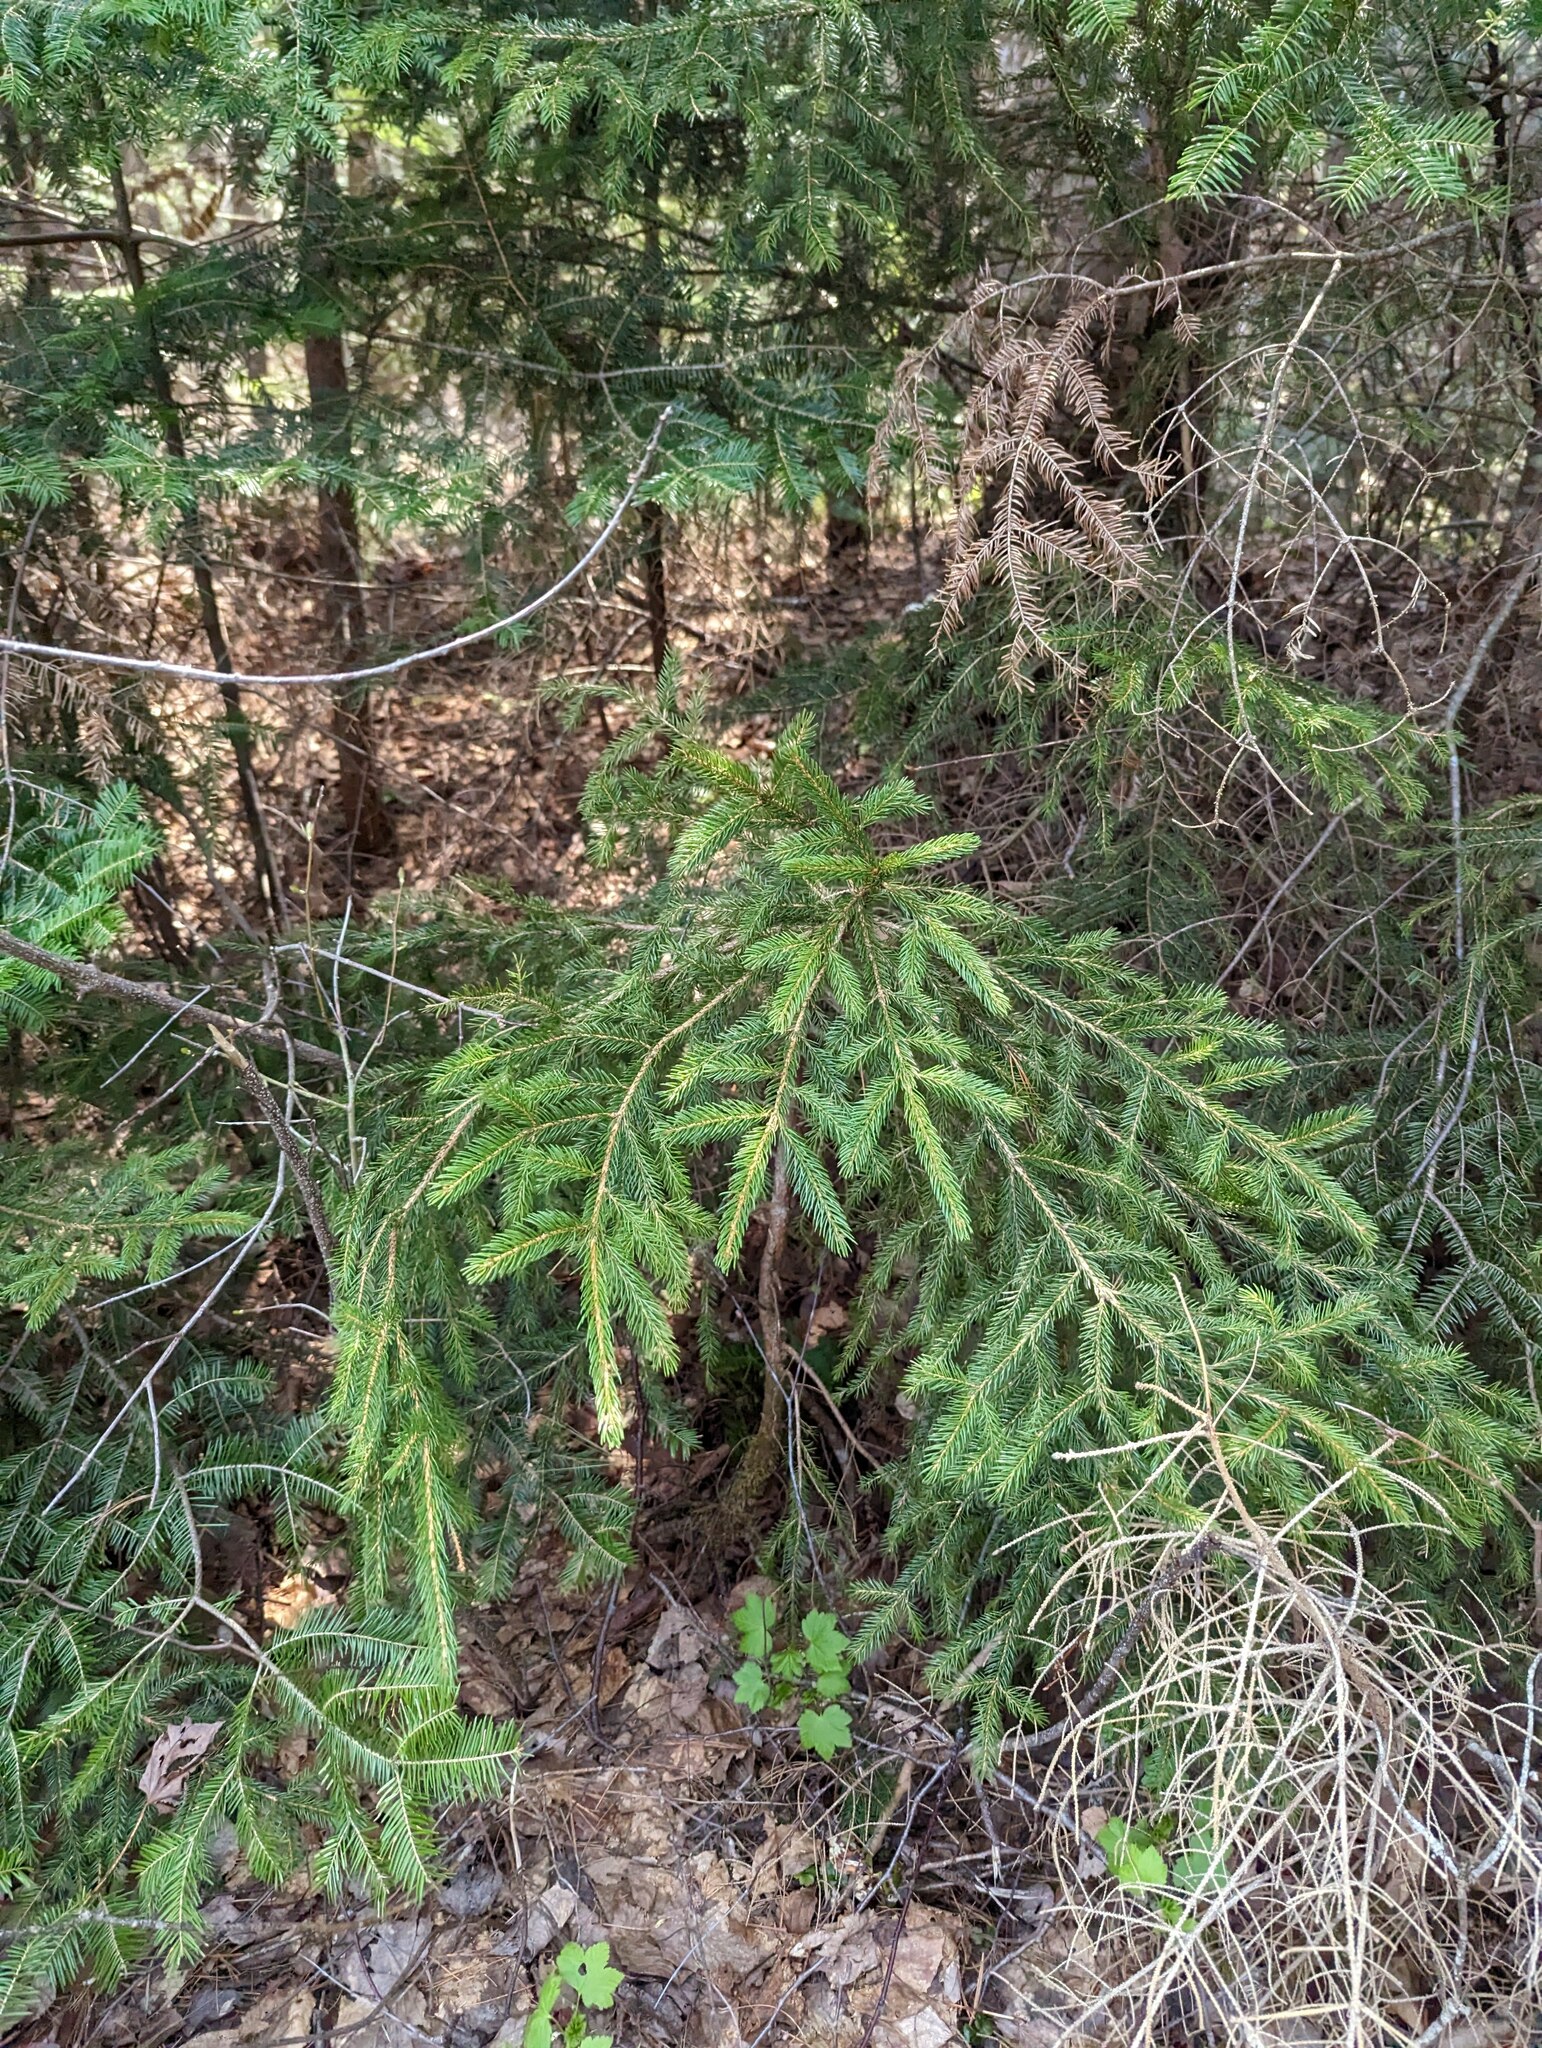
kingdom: Plantae
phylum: Tracheophyta
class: Pinopsida
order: Pinales
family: Pinaceae
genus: Picea
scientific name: Picea rubens
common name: Red spruce
